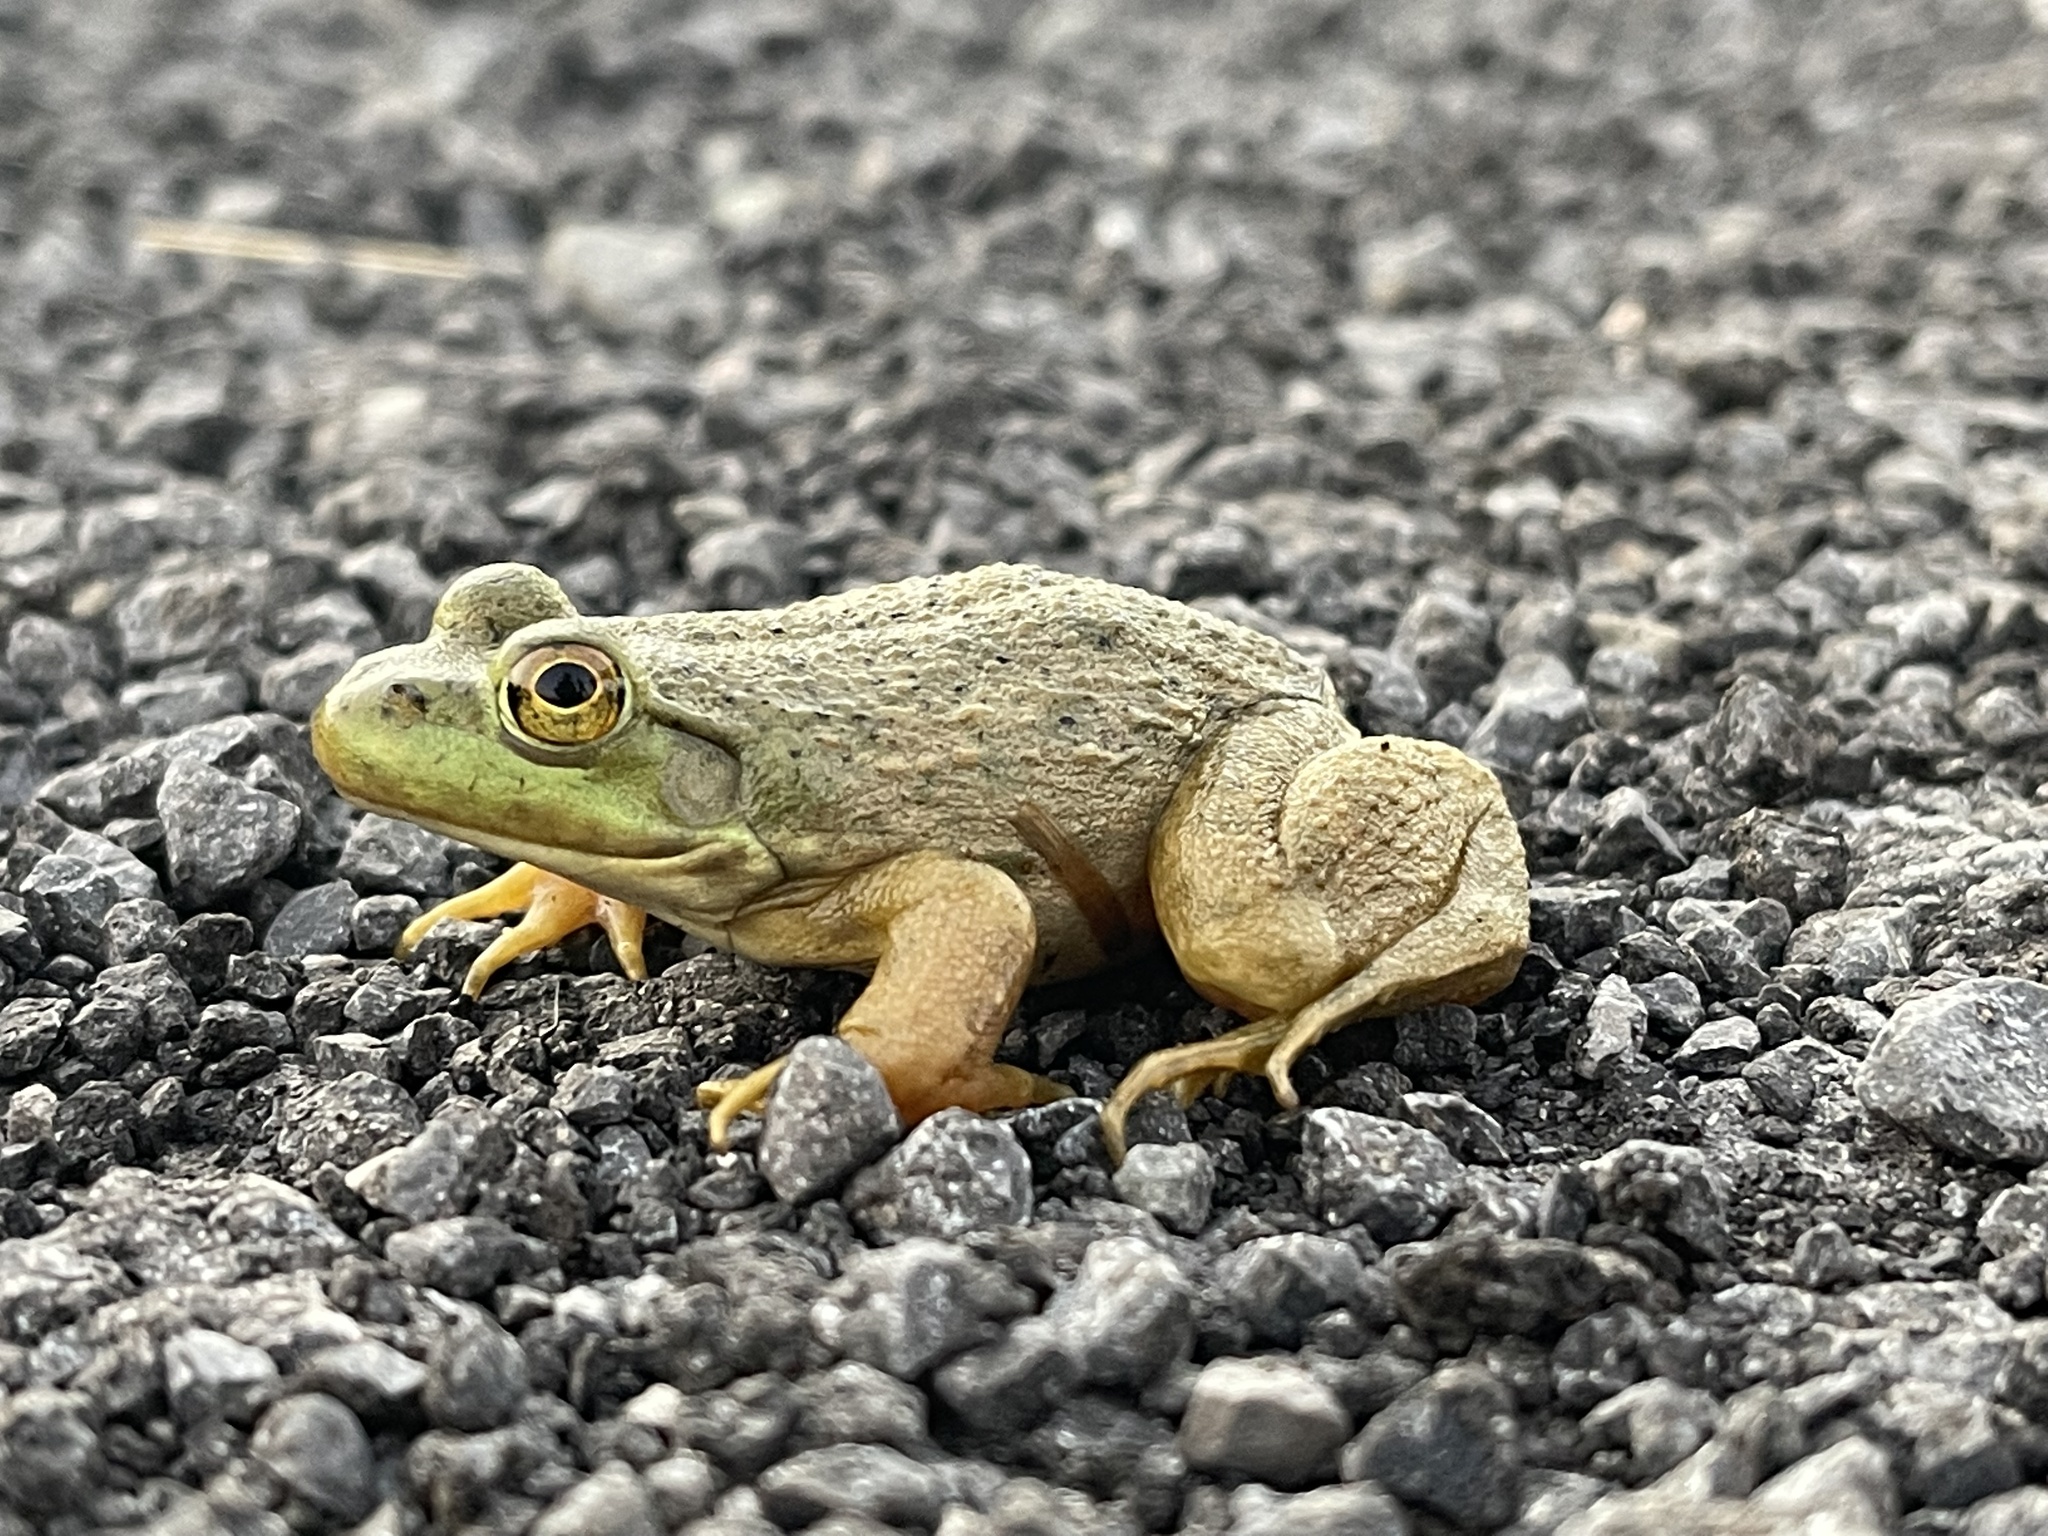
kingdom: Animalia
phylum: Chordata
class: Amphibia
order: Anura
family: Ranidae
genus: Lithobates
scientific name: Lithobates catesbeianus
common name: American bullfrog
